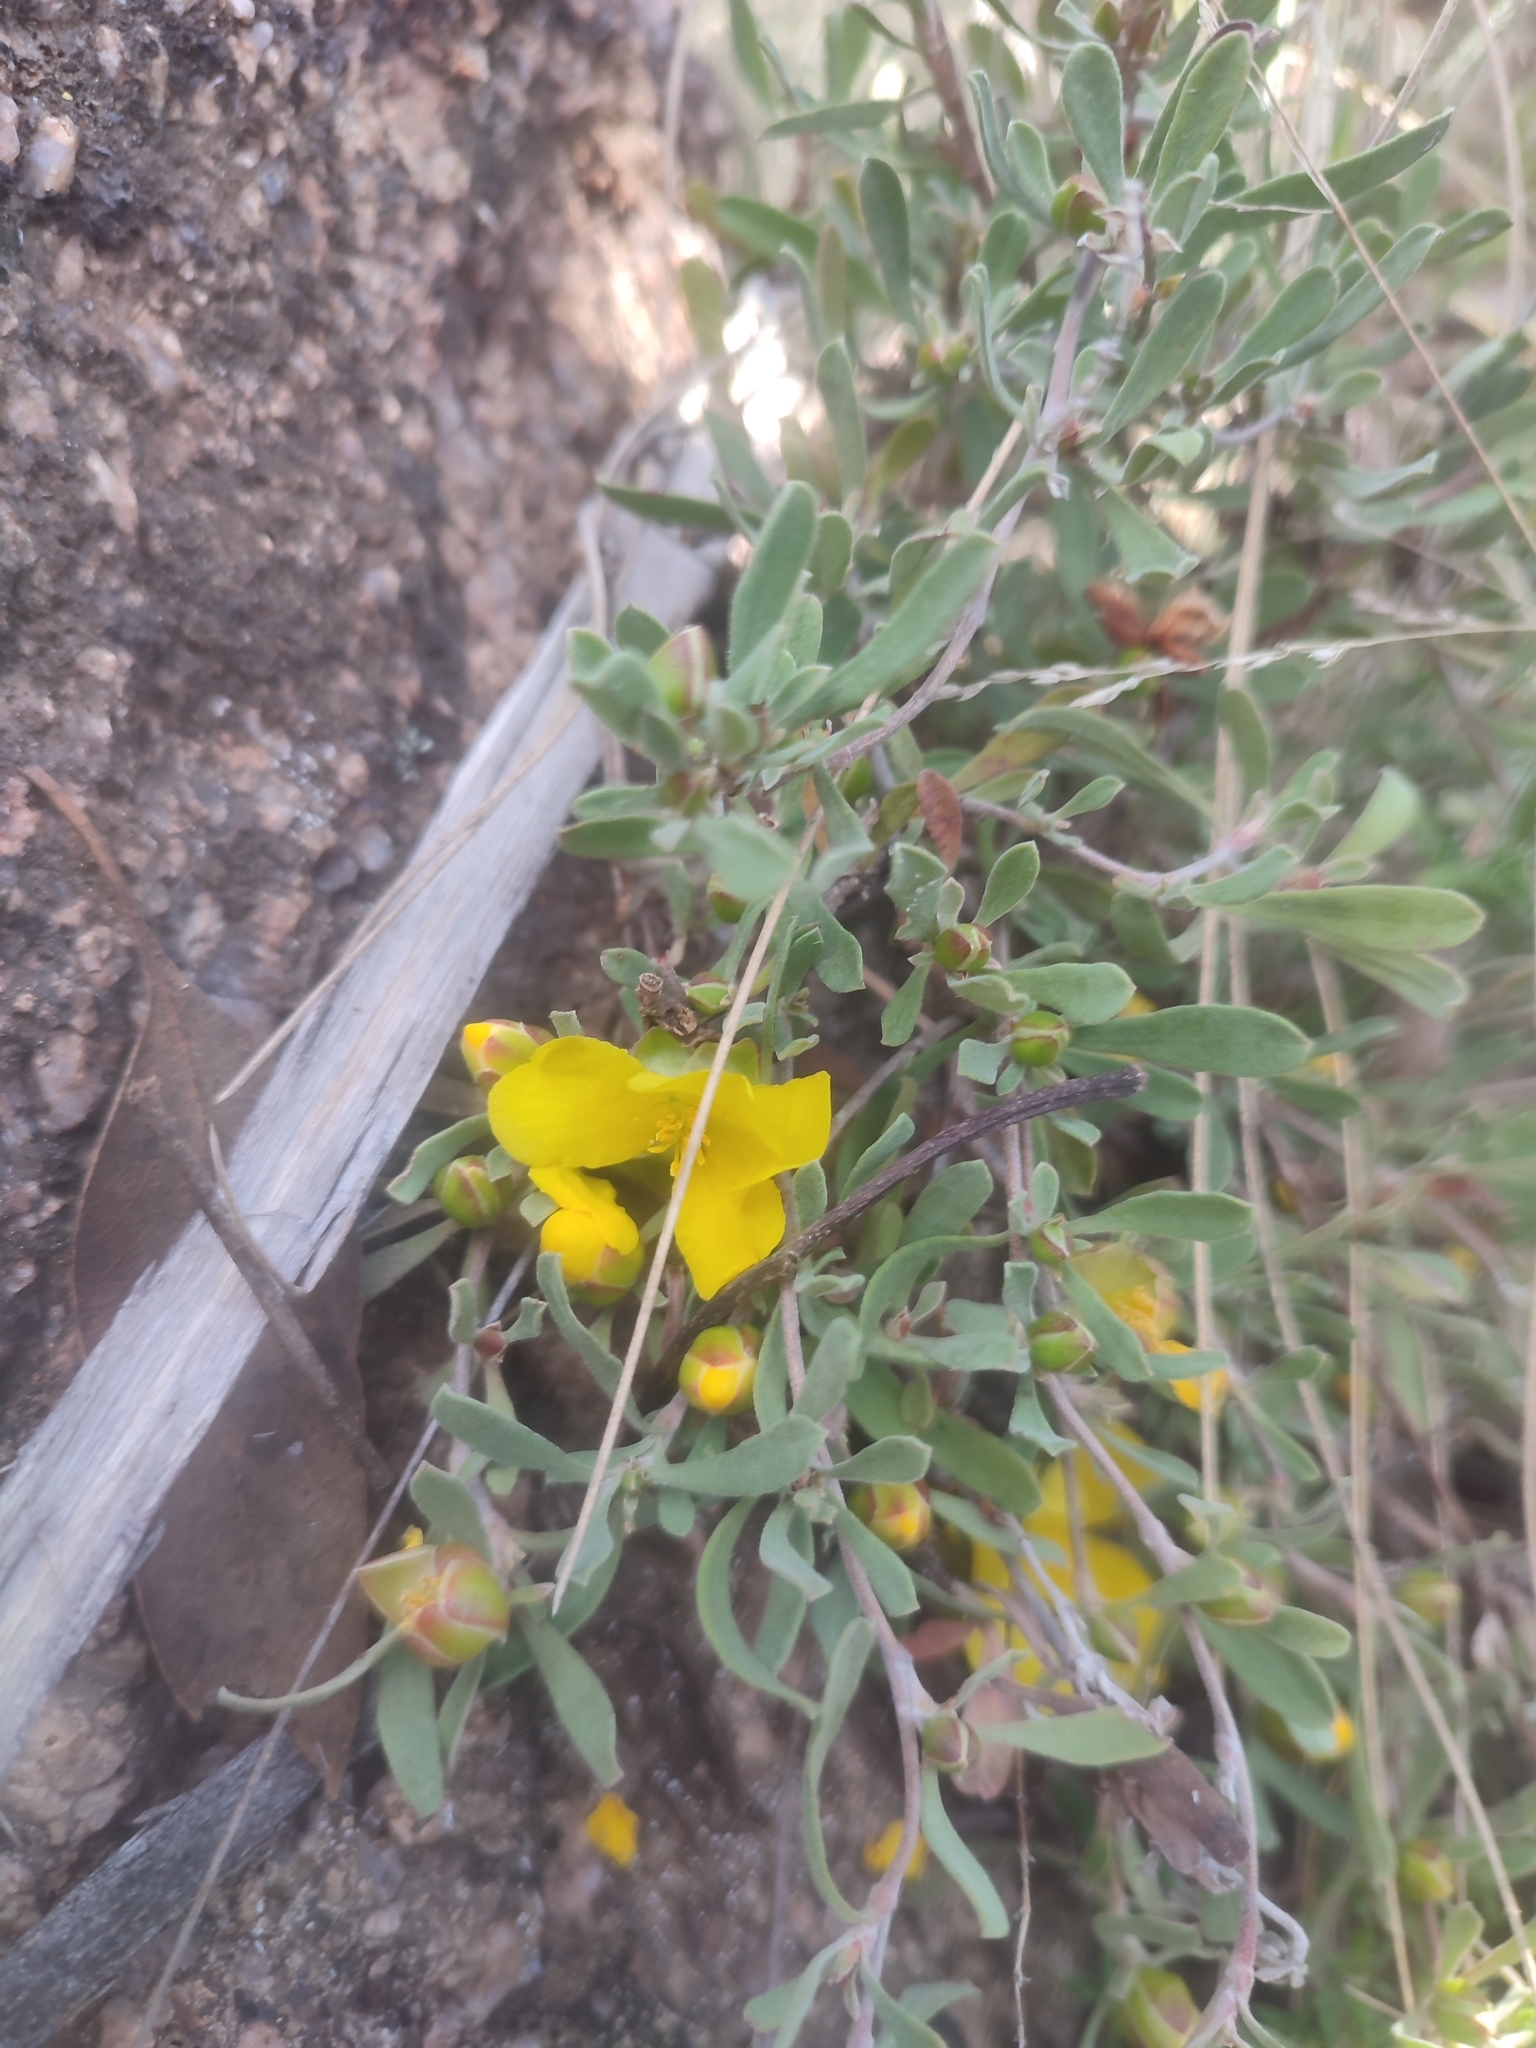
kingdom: Plantae
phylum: Tracheophyta
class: Magnoliopsida
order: Dilleniales
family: Dilleniaceae
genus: Hibbertia
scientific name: Hibbertia obtusifolia
